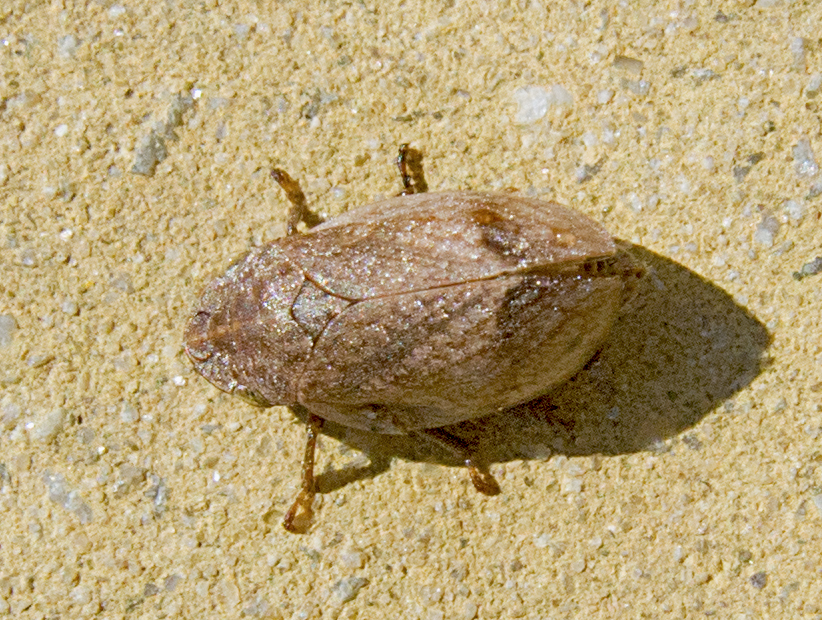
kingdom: Animalia
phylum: Arthropoda
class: Insecta
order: Hemiptera
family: Aphrophoridae
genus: Lepyronia
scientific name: Lepyronia coleoptrata
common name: Leafhopper
